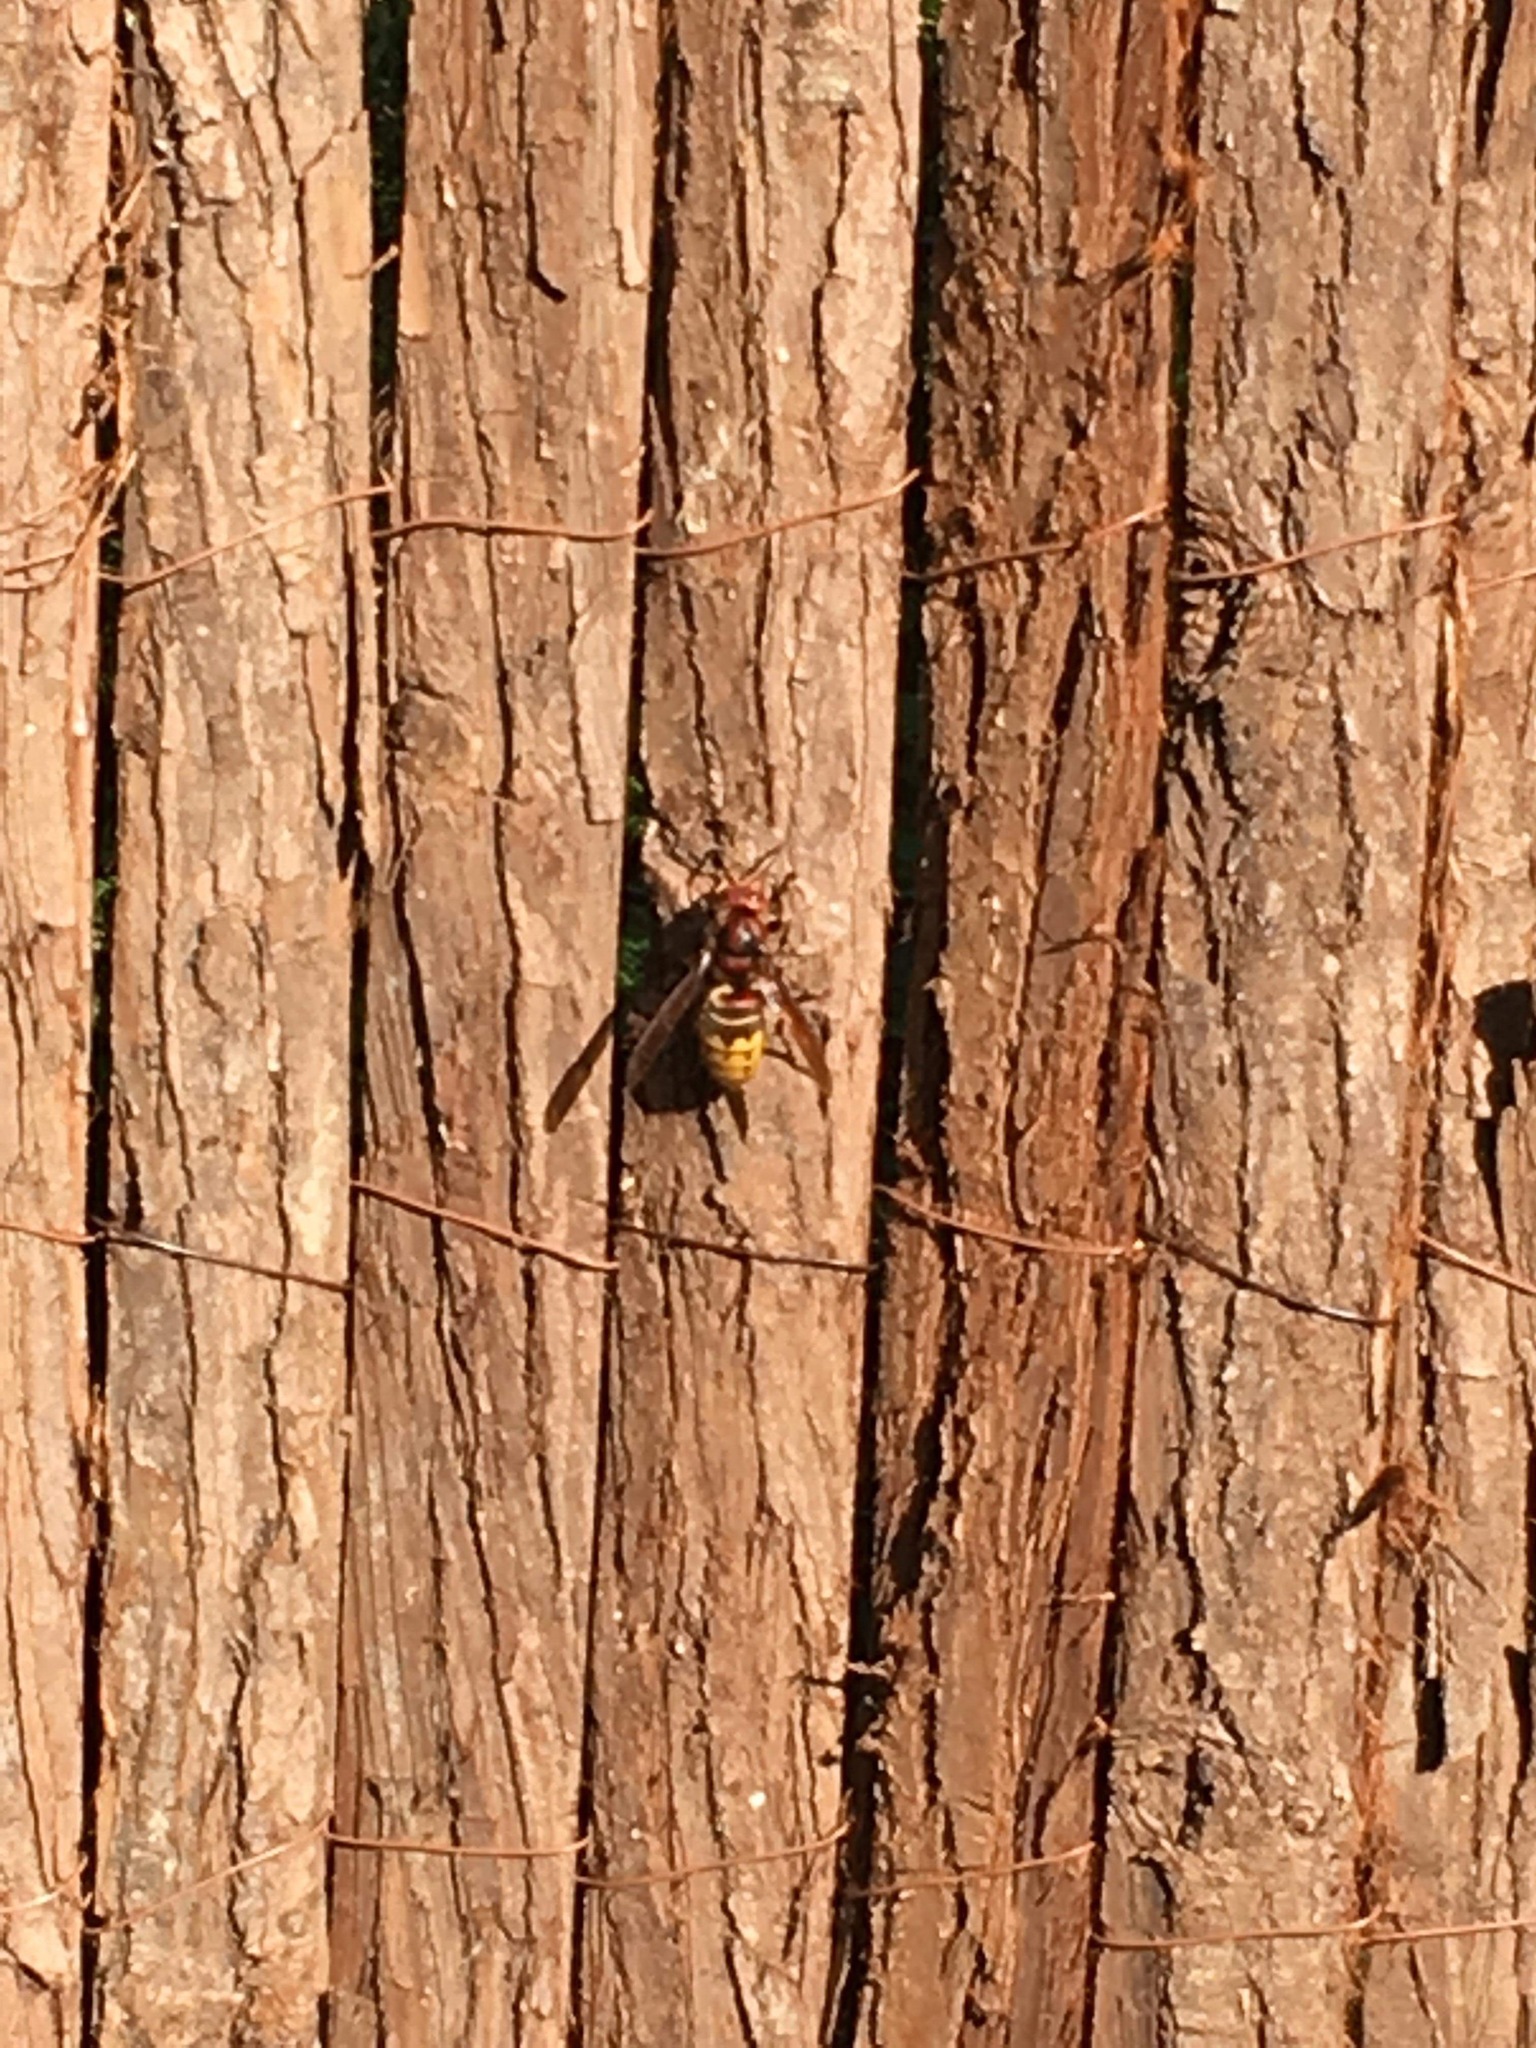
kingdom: Animalia
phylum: Arthropoda
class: Insecta
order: Hymenoptera
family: Vespidae
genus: Vespa
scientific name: Vespa crabro
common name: Hornet
